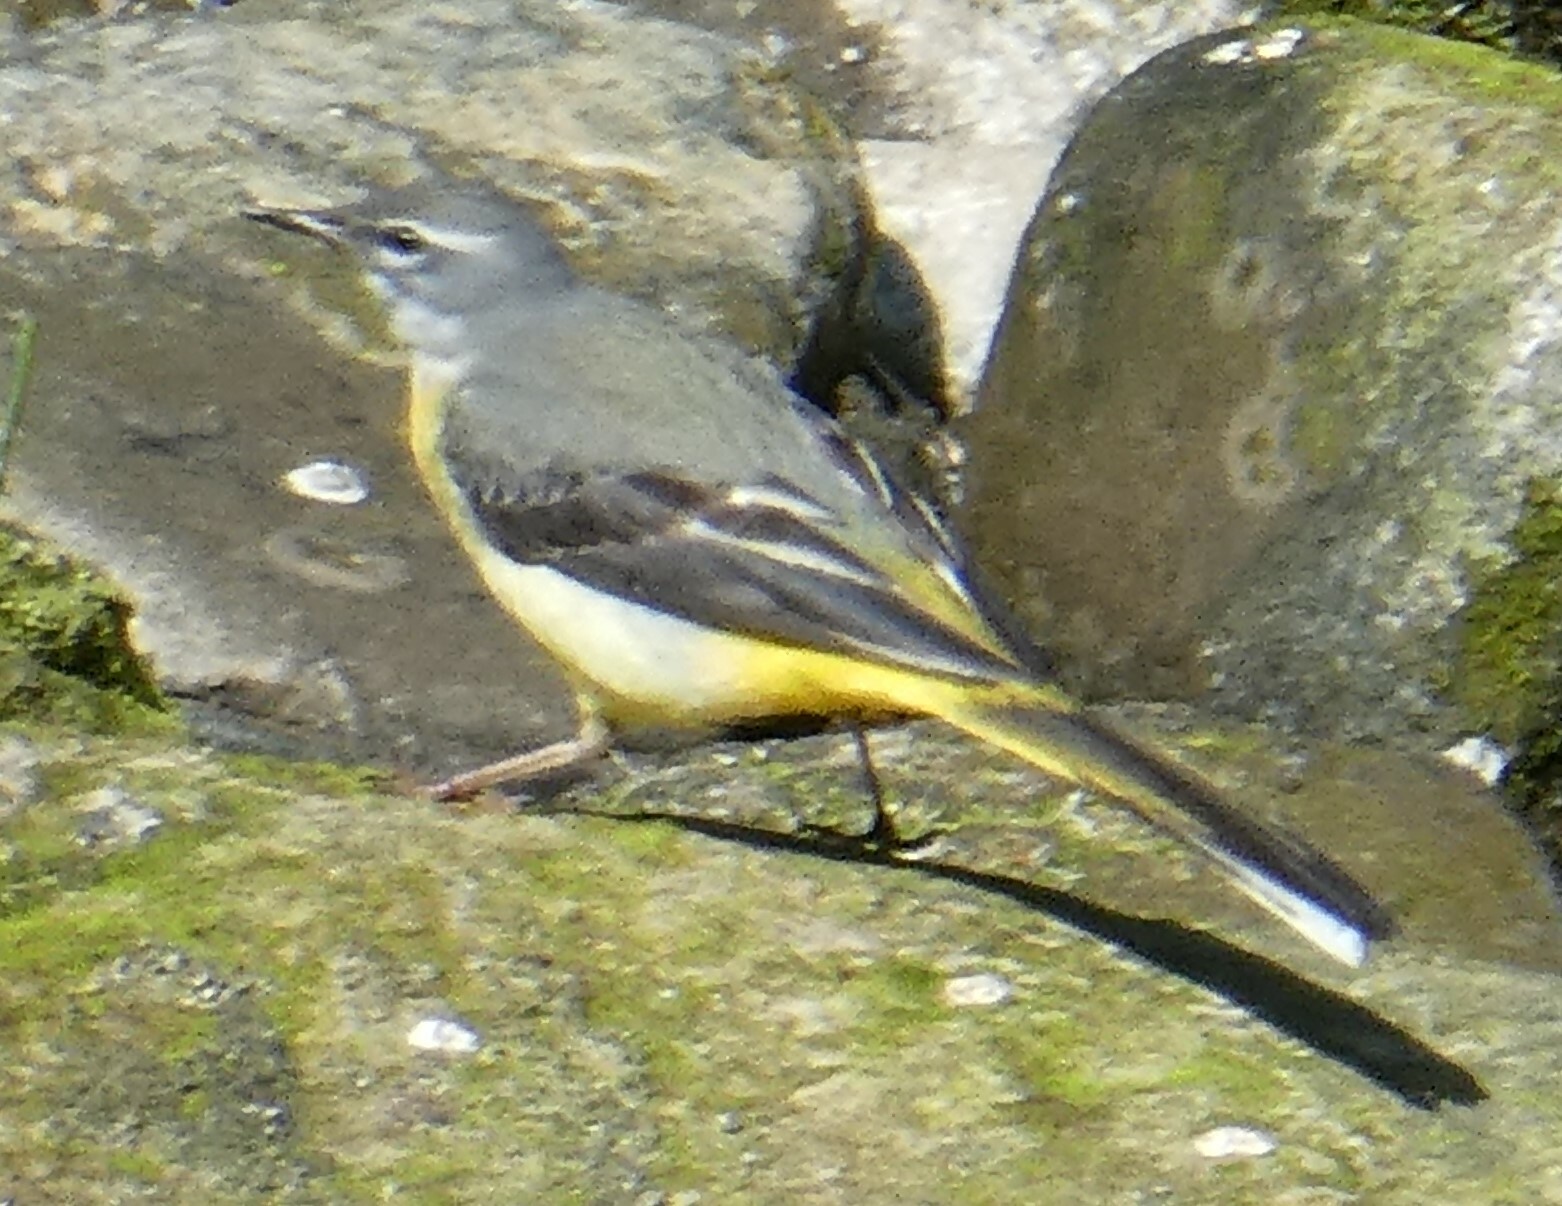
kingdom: Animalia
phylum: Chordata
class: Aves
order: Passeriformes
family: Motacillidae
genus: Motacilla
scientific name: Motacilla cinerea
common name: Grey wagtail
